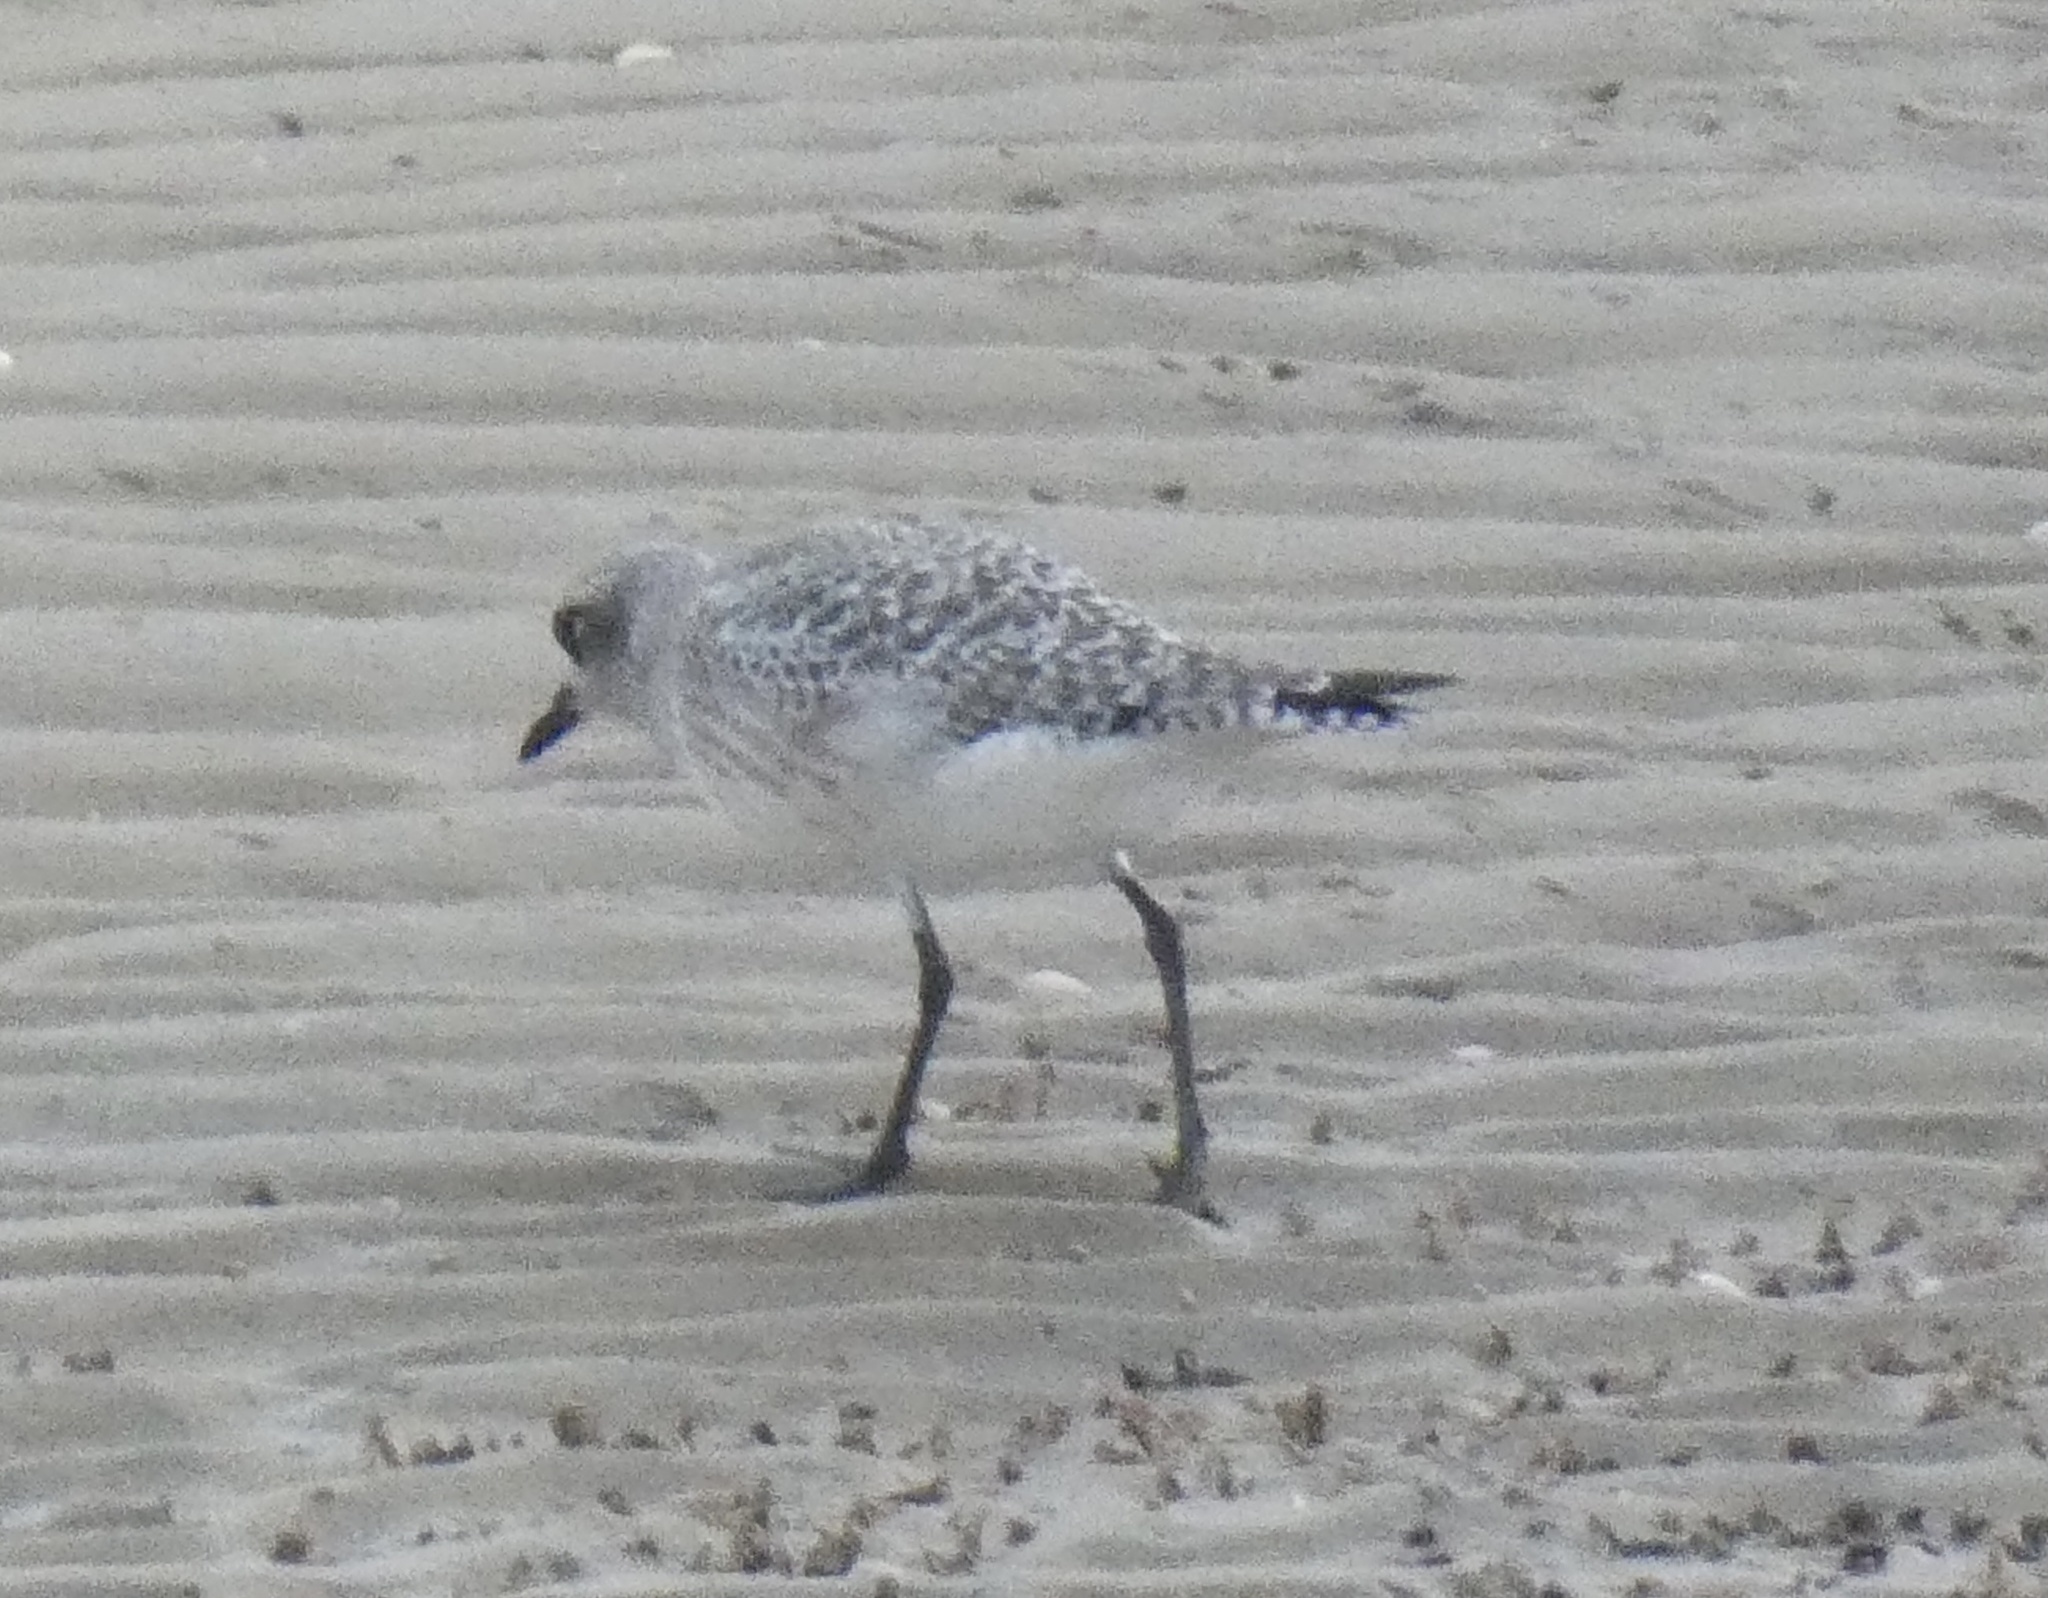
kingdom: Animalia
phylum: Chordata
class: Aves
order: Charadriiformes
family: Charadriidae
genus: Pluvialis
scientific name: Pluvialis squatarola
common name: Grey plover
